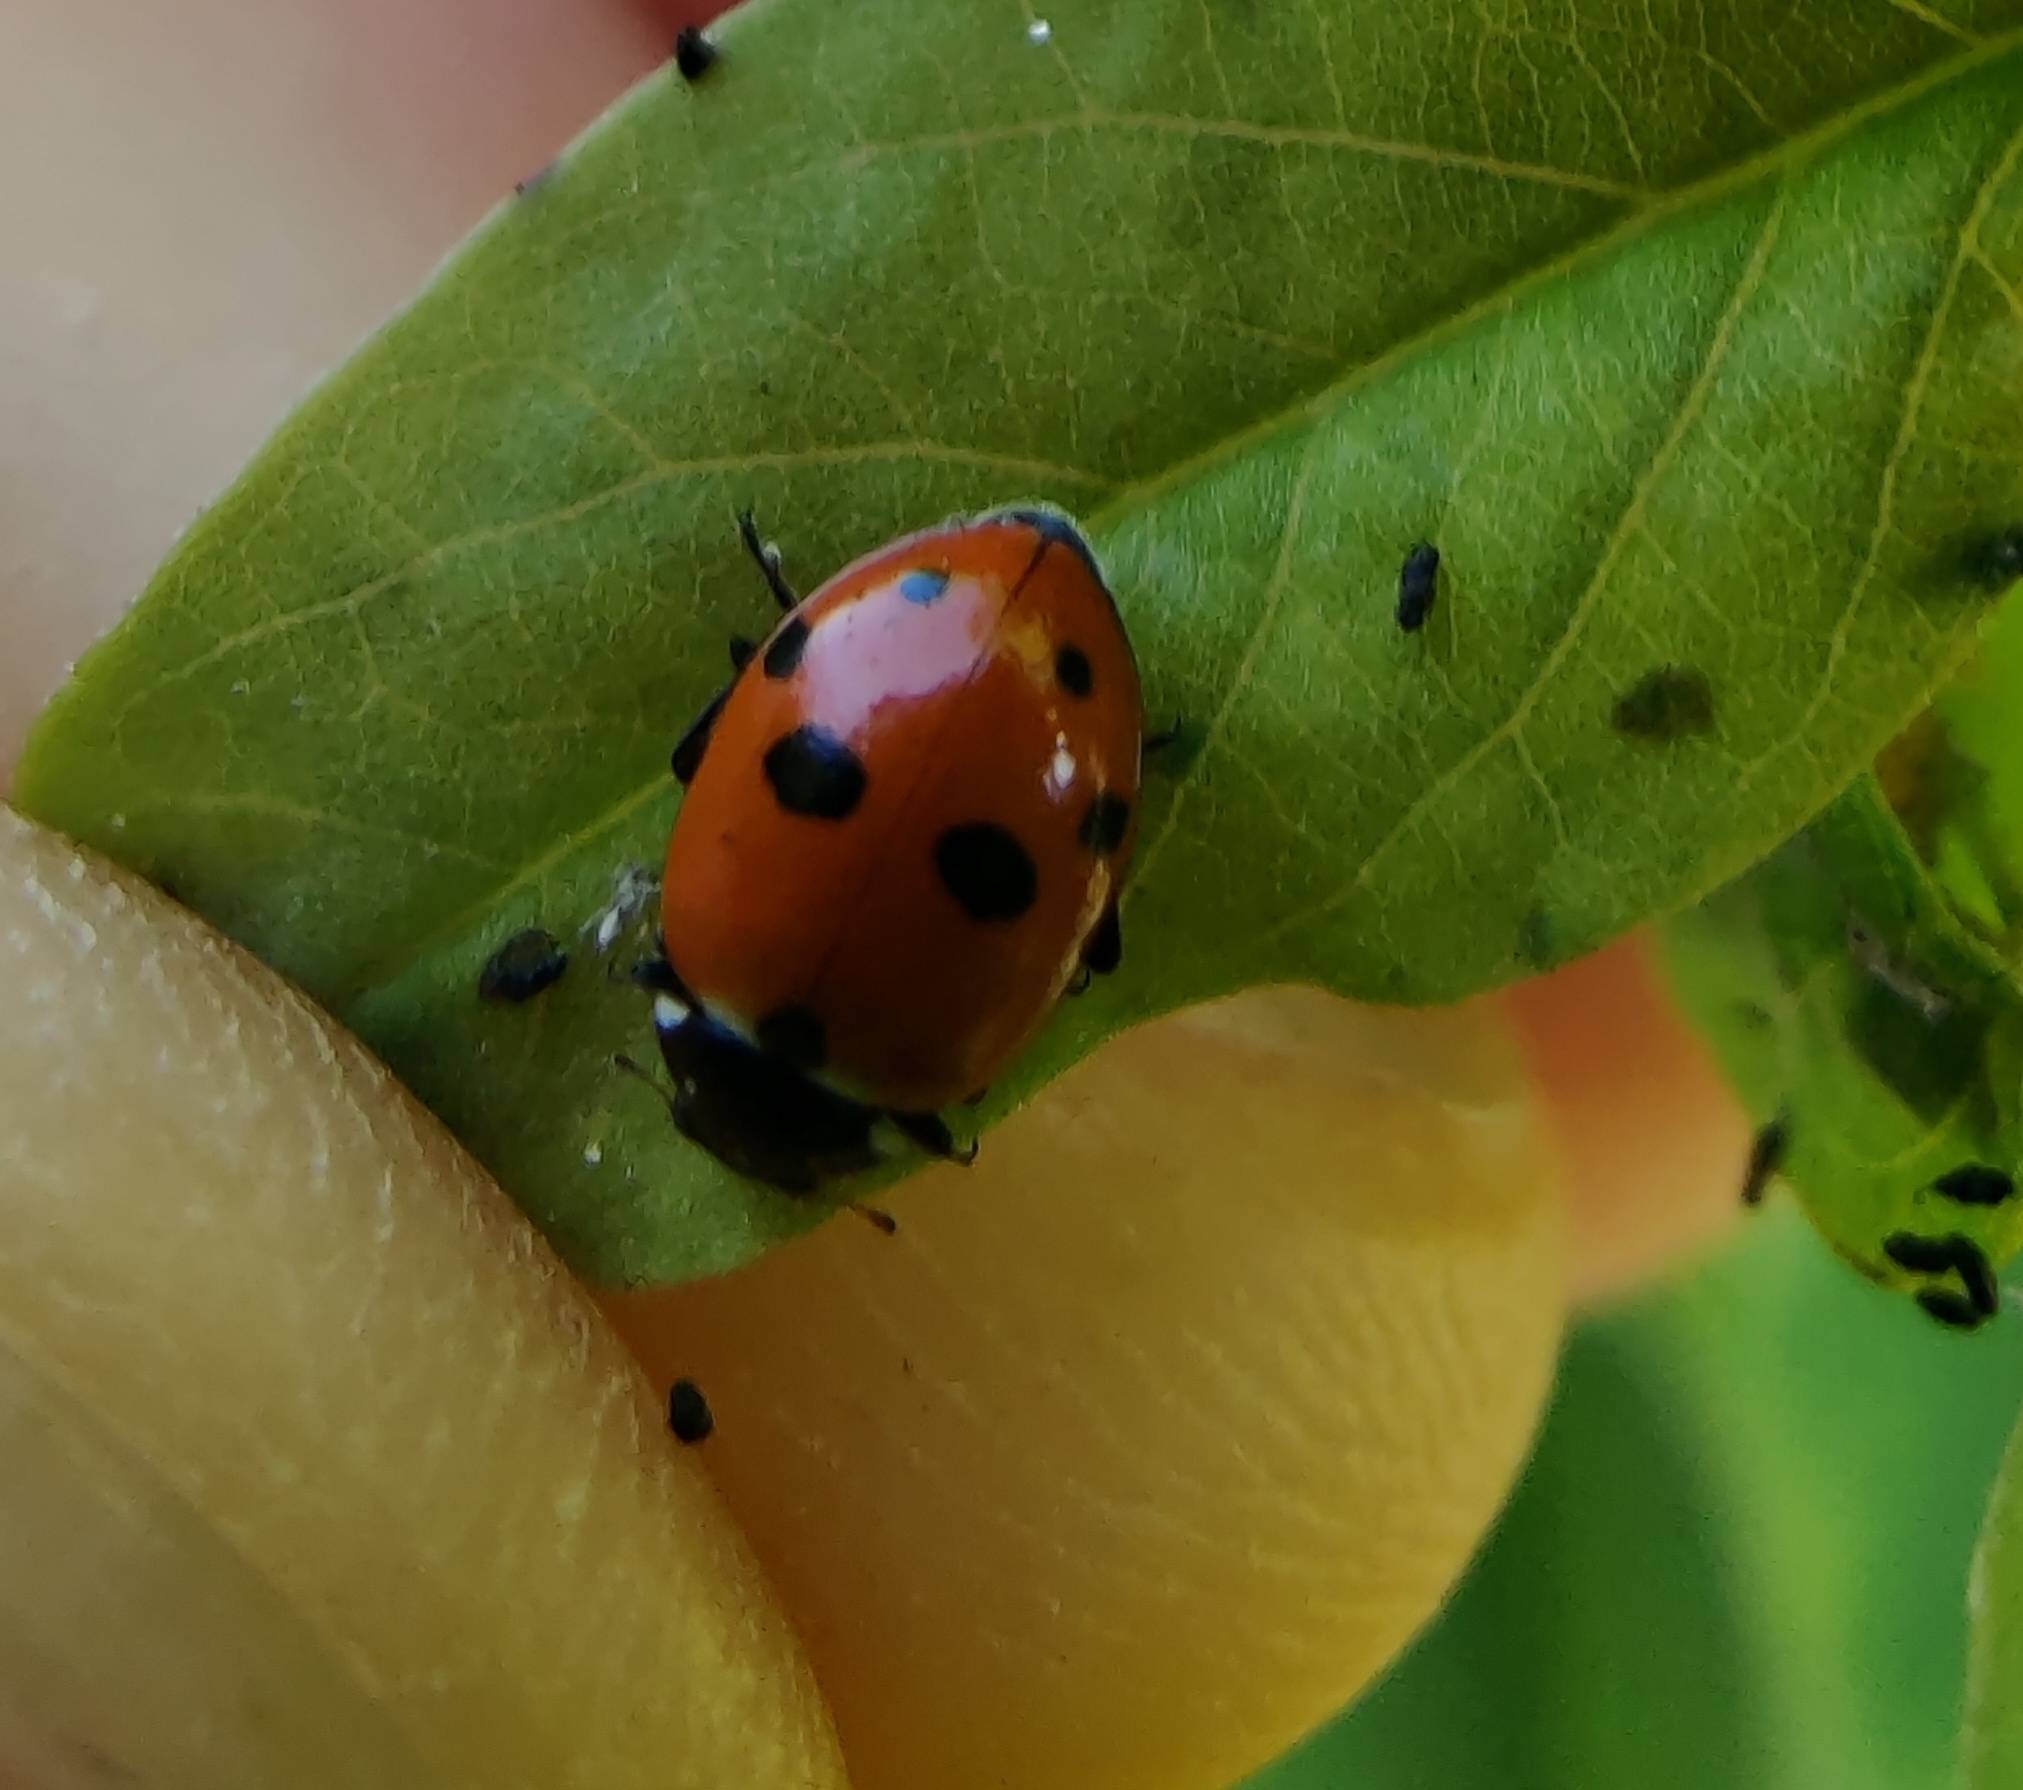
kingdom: Animalia
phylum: Arthropoda
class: Insecta
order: Coleoptera
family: Coccinellidae
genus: Hippodamia
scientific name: Hippodamia variegata
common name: Ladybird beetle
